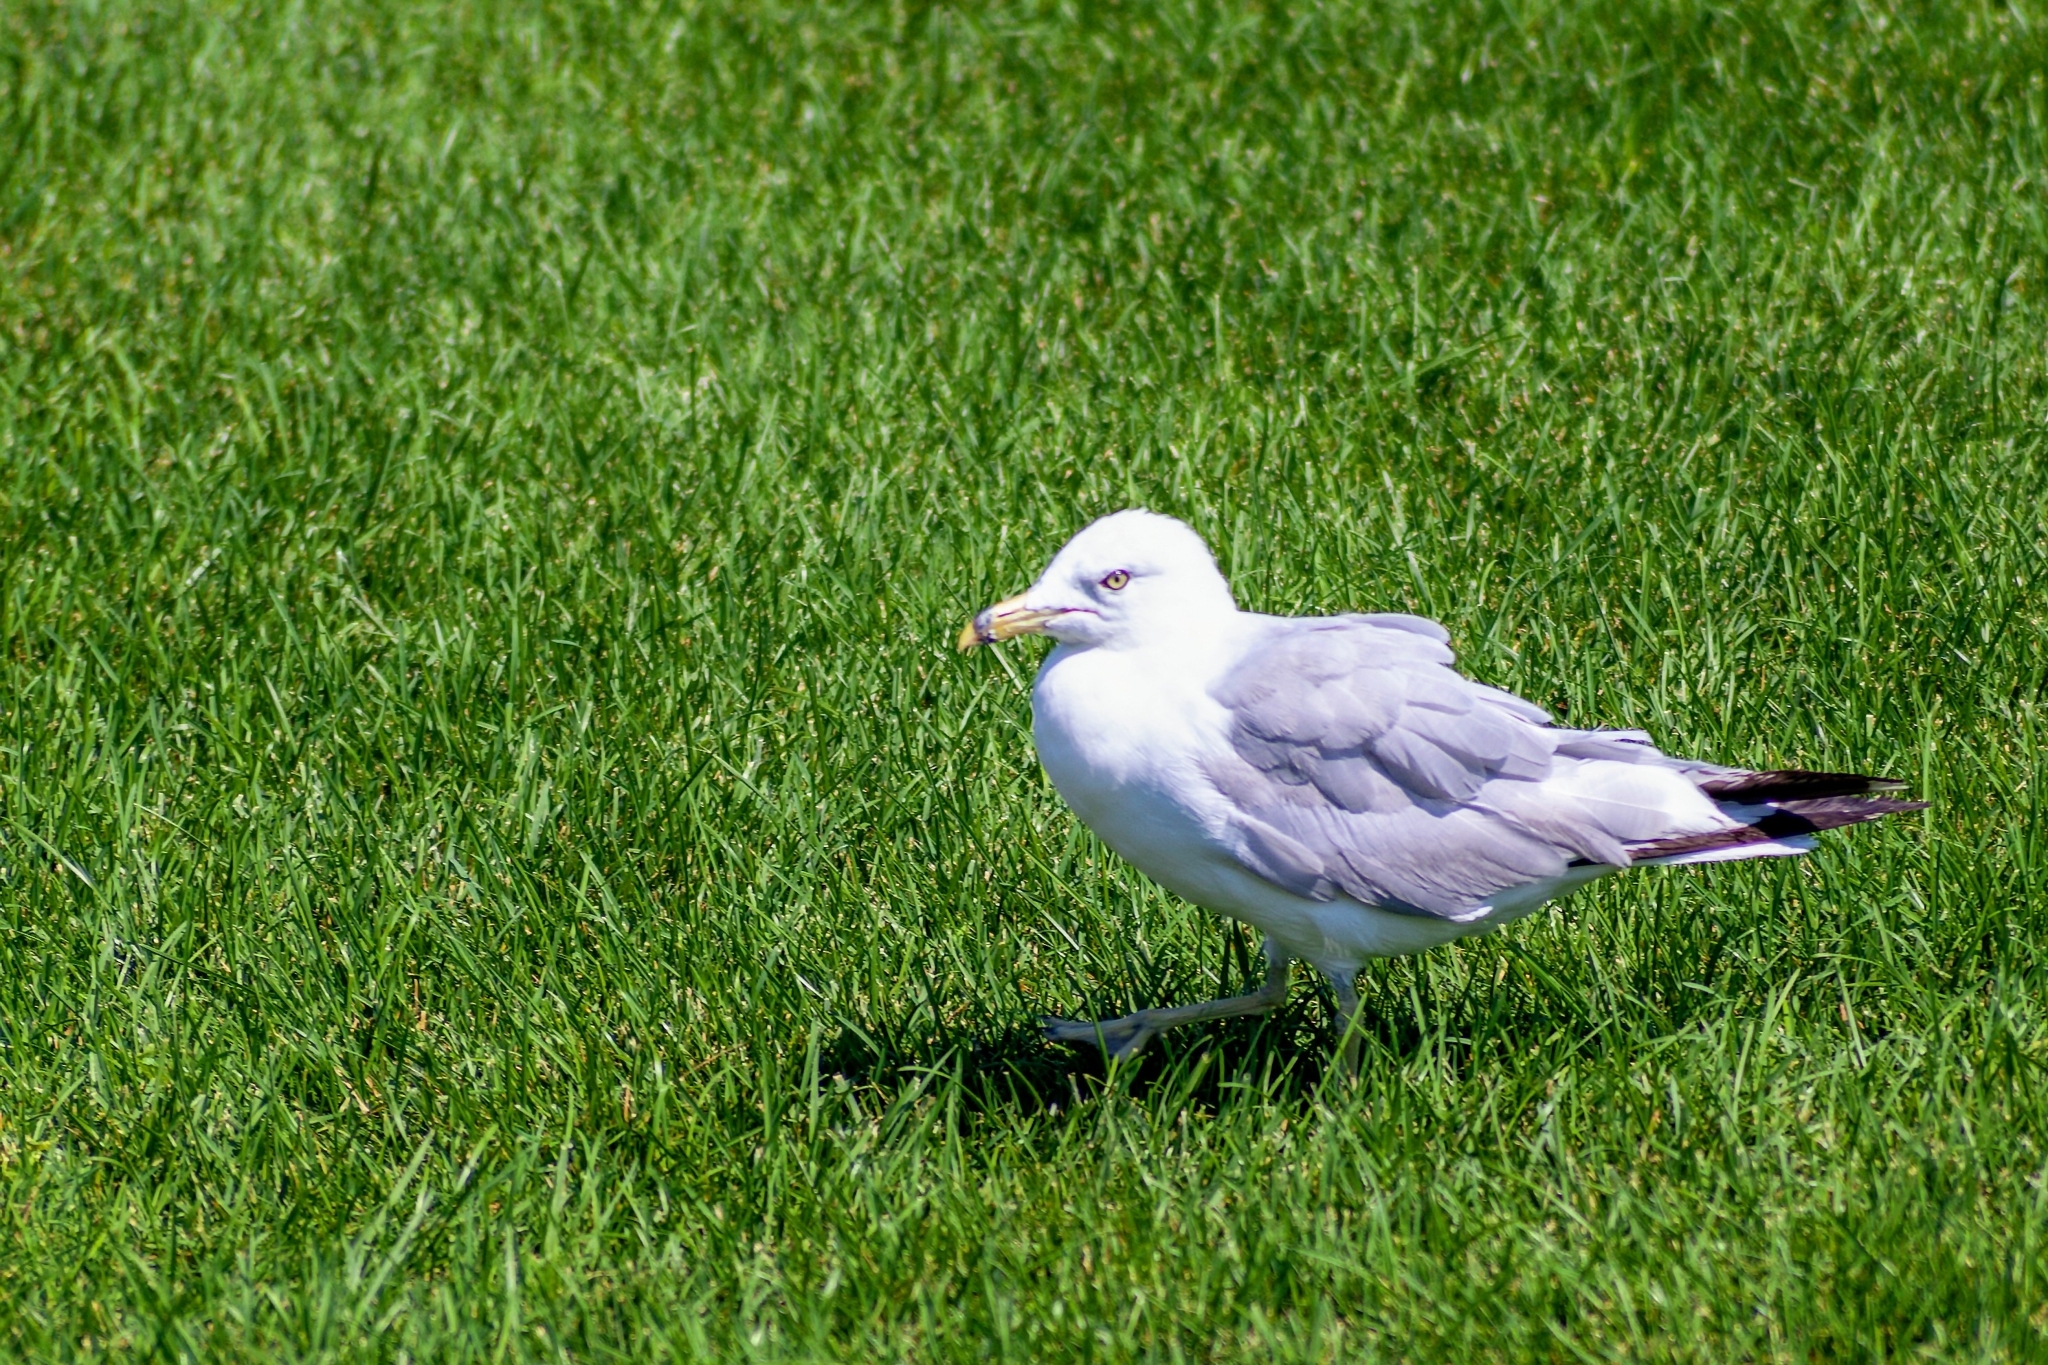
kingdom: Animalia
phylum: Chordata
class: Aves
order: Charadriiformes
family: Laridae
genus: Larus
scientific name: Larus delawarensis
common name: Ring-billed gull
